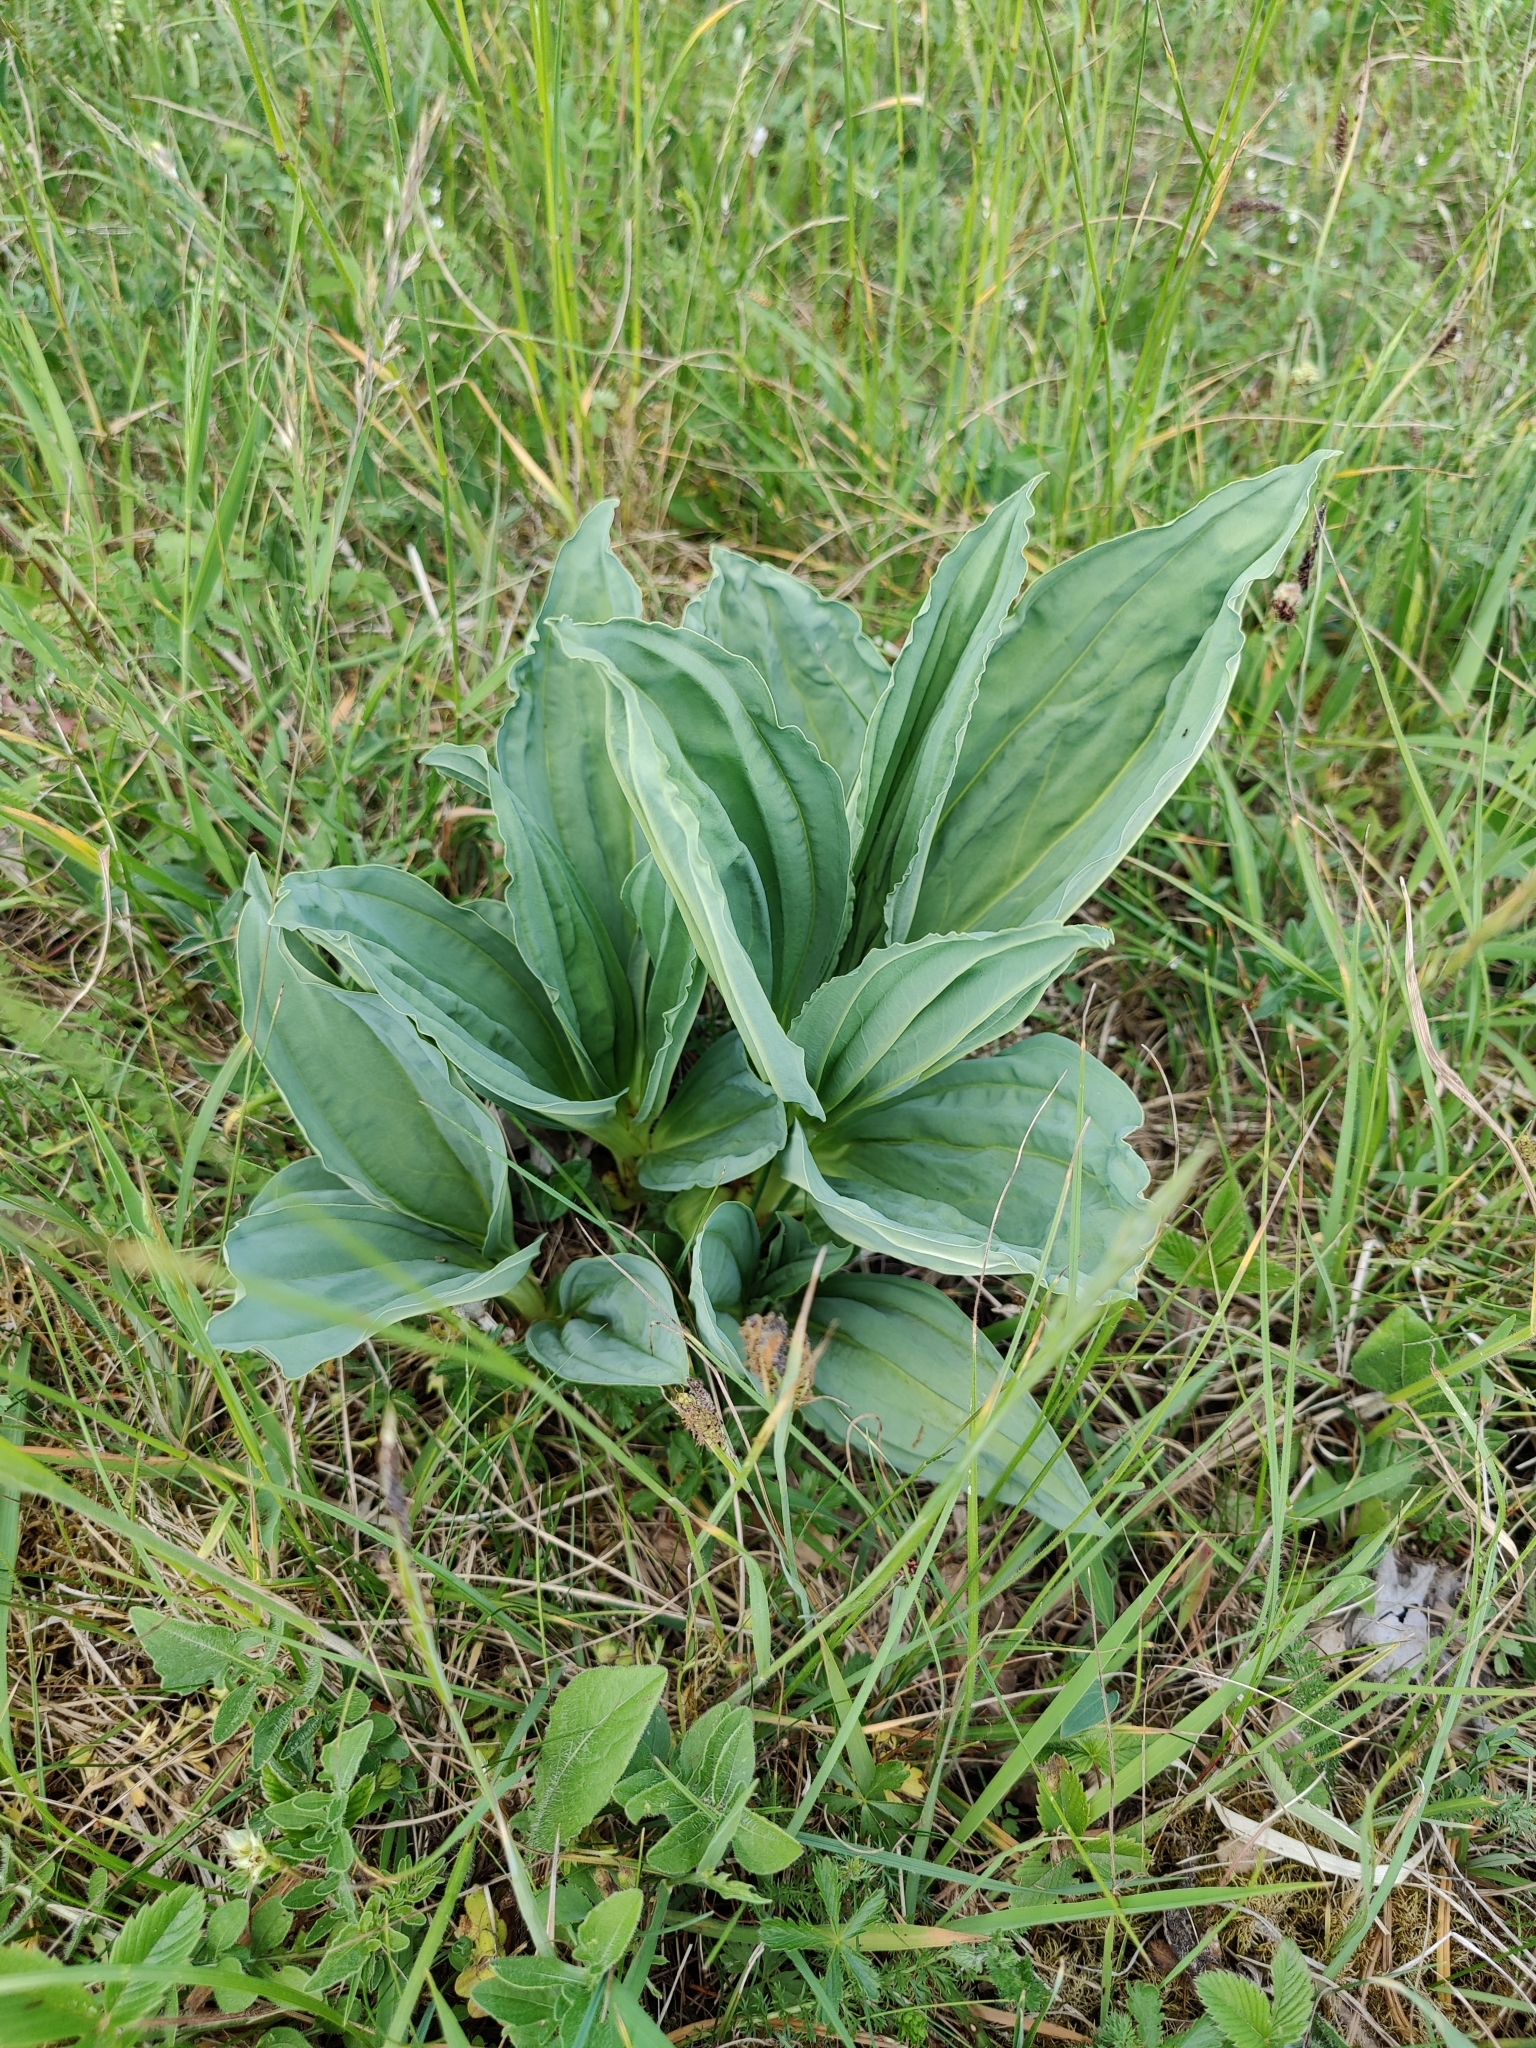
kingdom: Plantae
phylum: Tracheophyta
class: Magnoliopsida
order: Gentianales
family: Gentianaceae
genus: Gentiana
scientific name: Gentiana lutea
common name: Great yellow gentian
